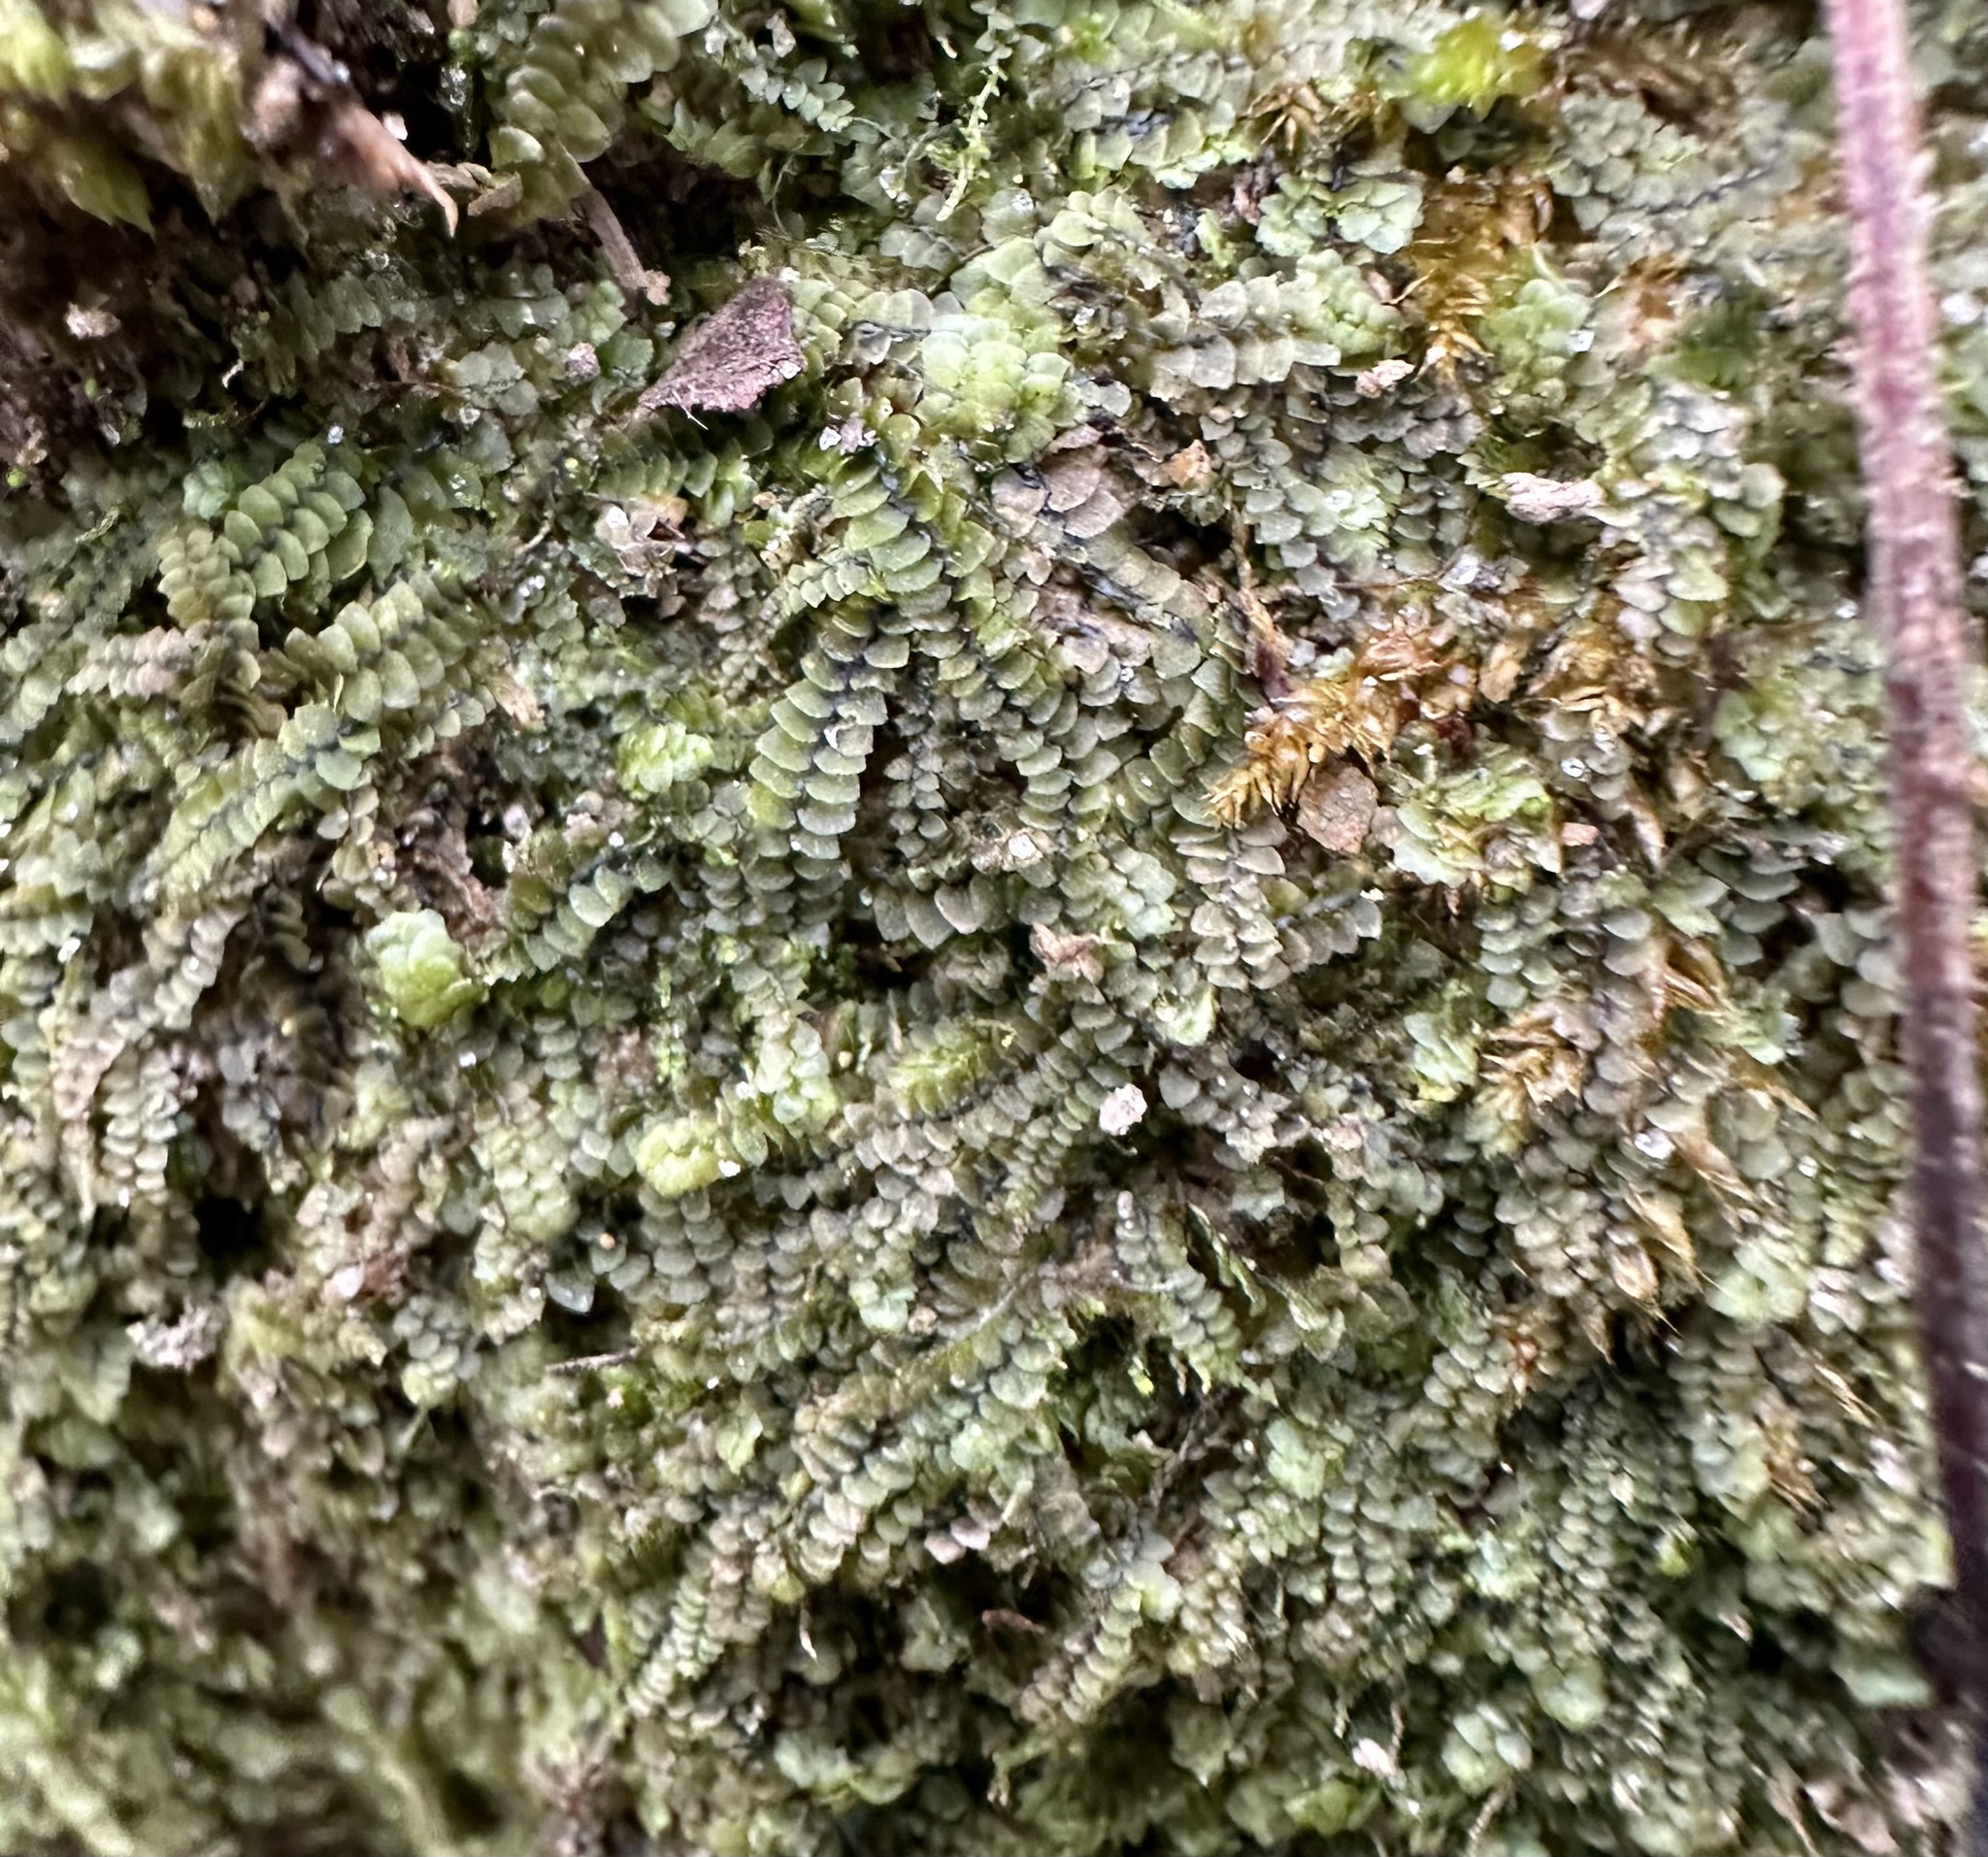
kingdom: Plantae
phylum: Marchantiophyta
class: Jungermanniopsida
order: Jungermanniales
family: Calypogeiaceae
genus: Calypogeia
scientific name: Calypogeia neogaea
